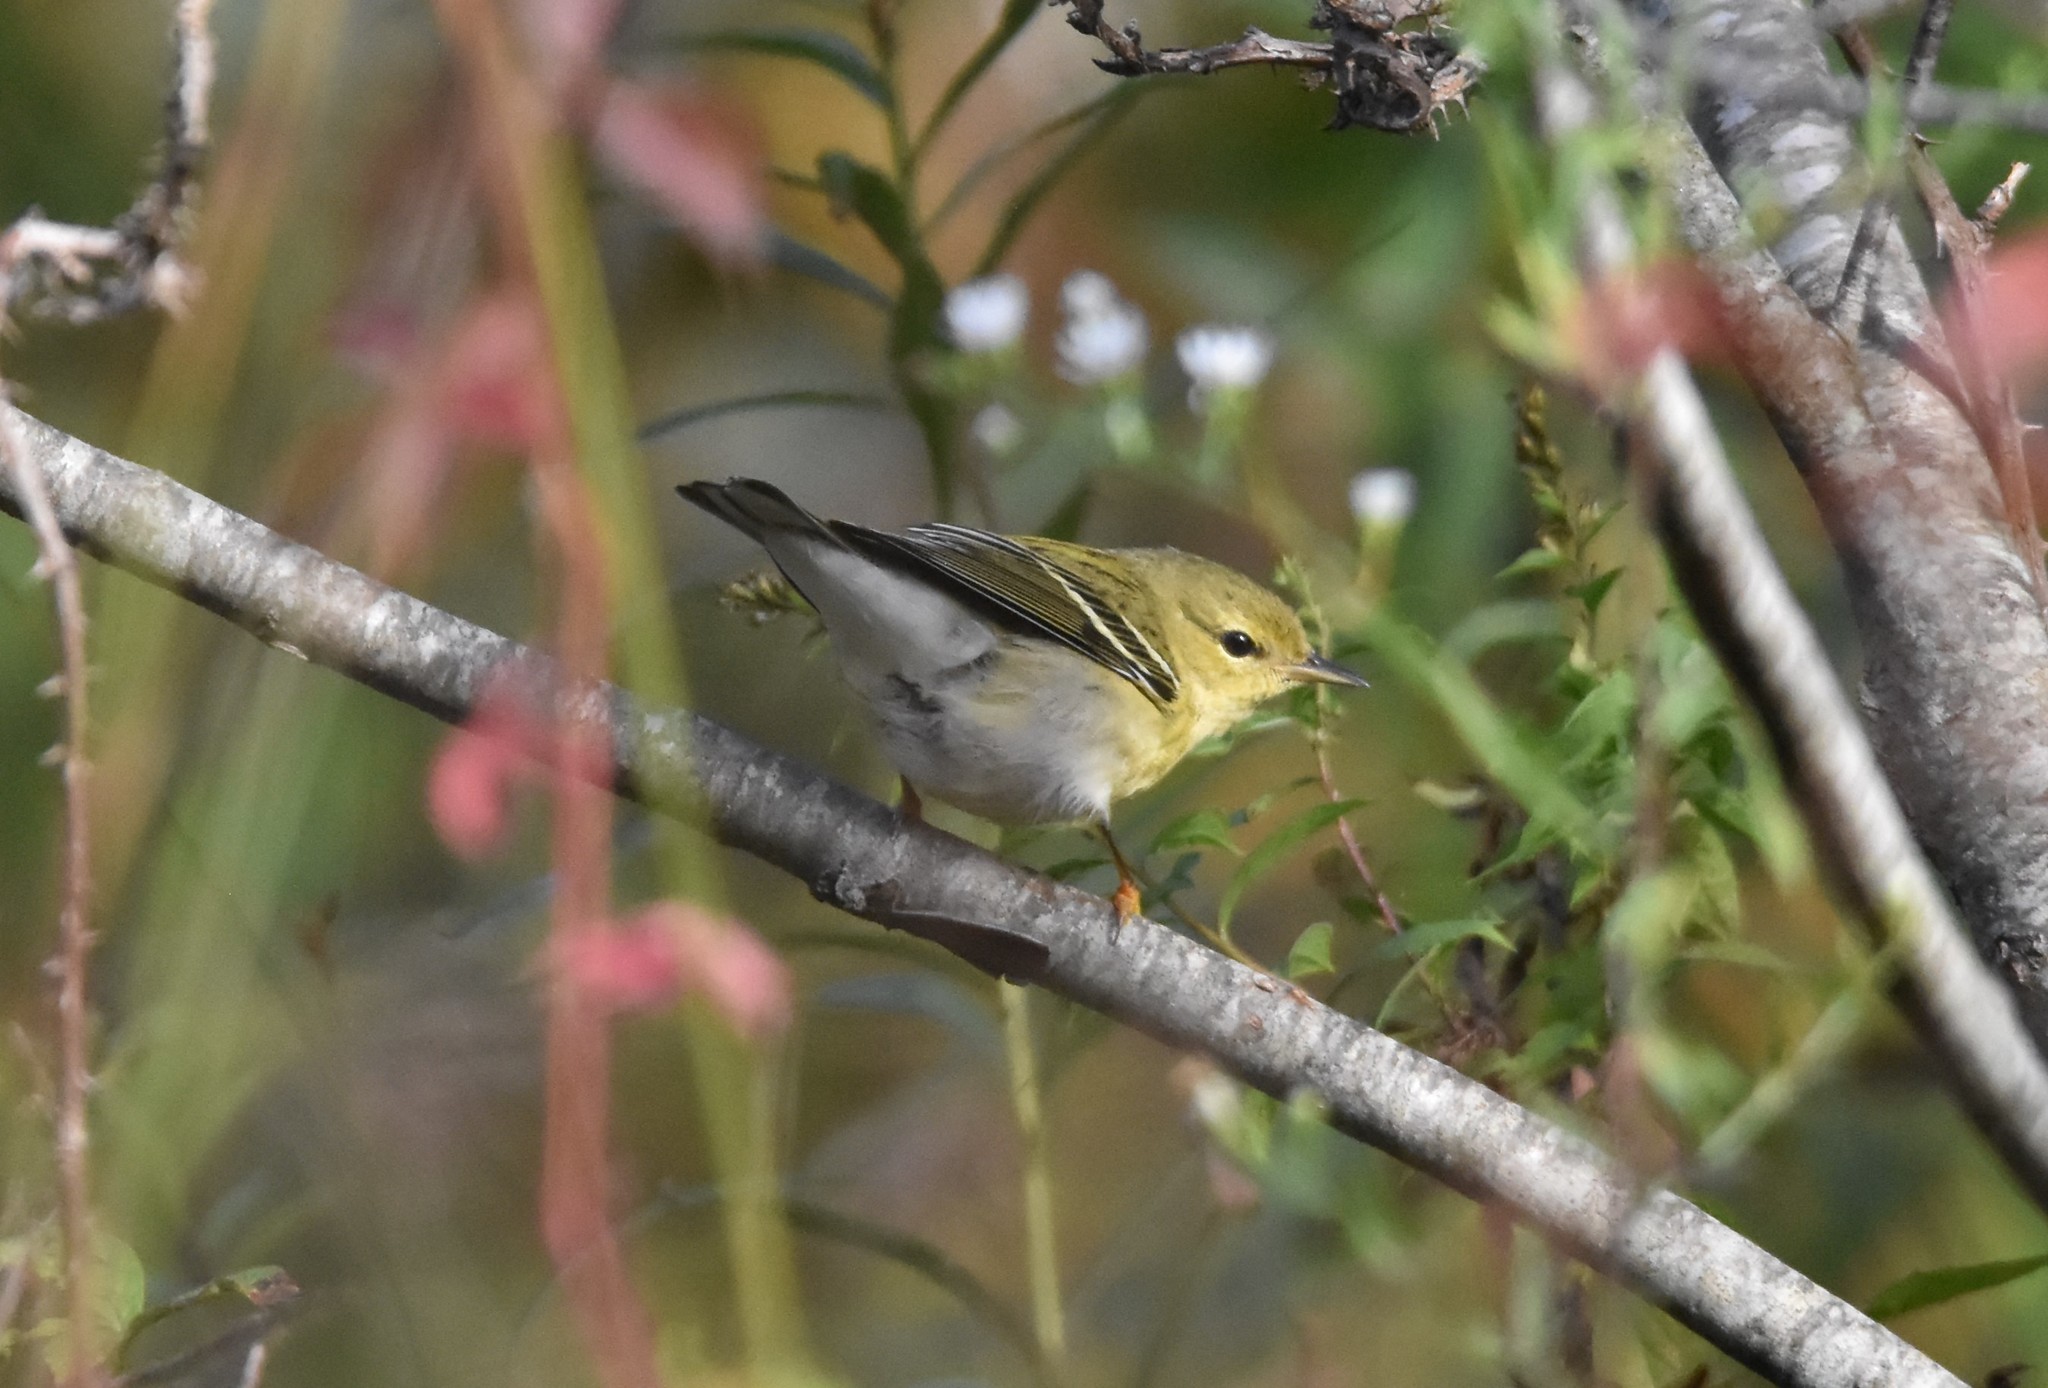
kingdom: Animalia
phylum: Chordata
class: Aves
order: Passeriformes
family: Parulidae
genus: Setophaga
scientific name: Setophaga striata
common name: Blackpoll warbler
